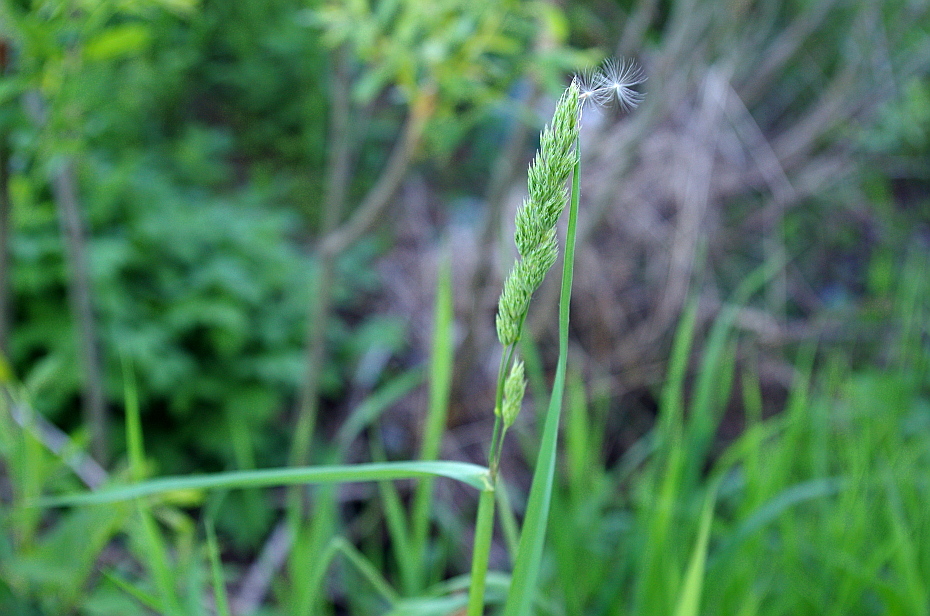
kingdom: Plantae
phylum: Tracheophyta
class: Liliopsida
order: Poales
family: Poaceae
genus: Dactylis
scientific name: Dactylis glomerata
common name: Orchardgrass
